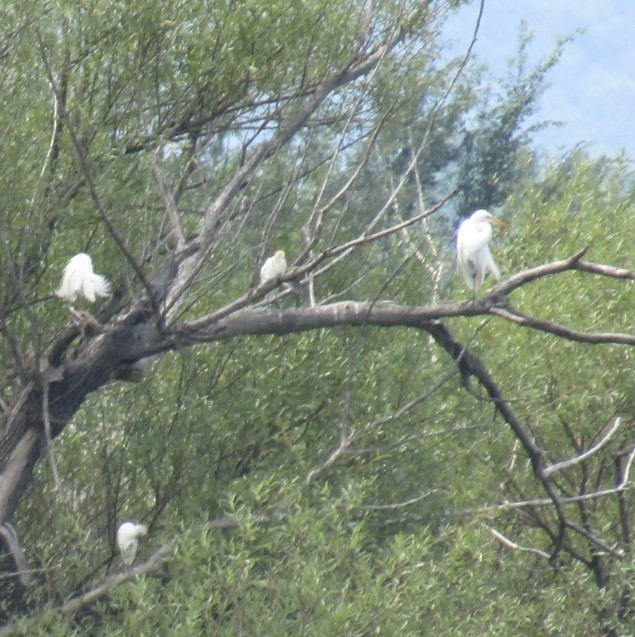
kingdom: Animalia
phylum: Chordata
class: Aves
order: Pelecaniformes
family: Ardeidae
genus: Ardea
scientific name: Ardea alba
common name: Great egret
